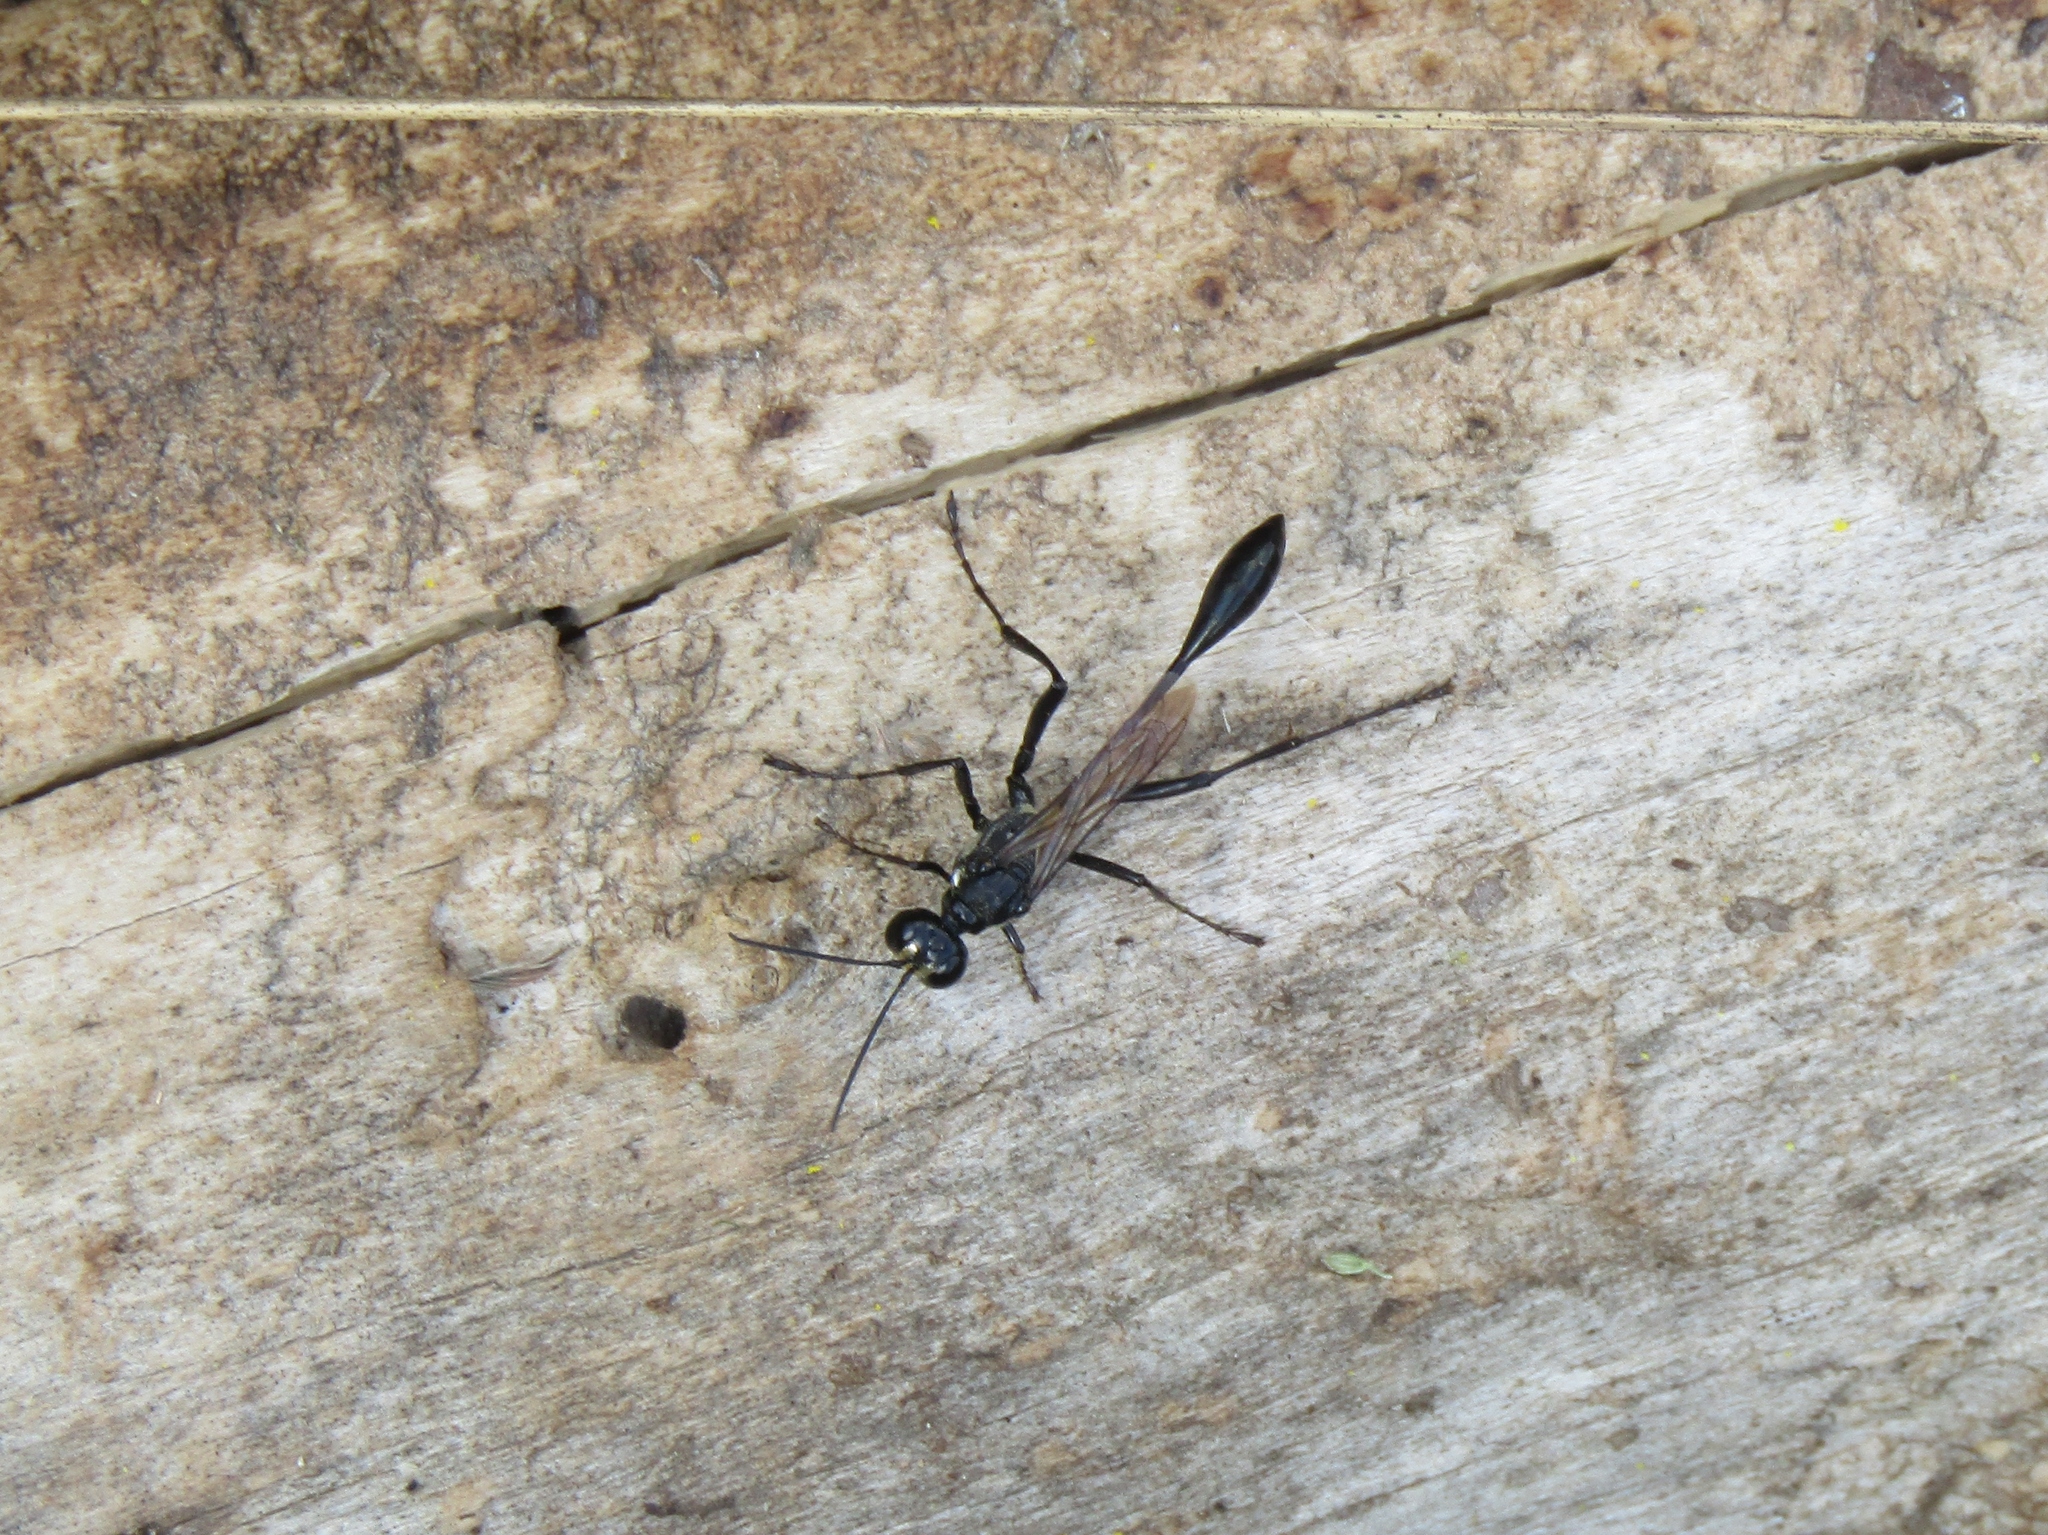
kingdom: Animalia
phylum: Arthropoda
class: Insecta
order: Hymenoptera
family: Sphecidae
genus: Eremnophila
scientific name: Eremnophila aureonotata
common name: Gold-marked thread-waisted wasp
